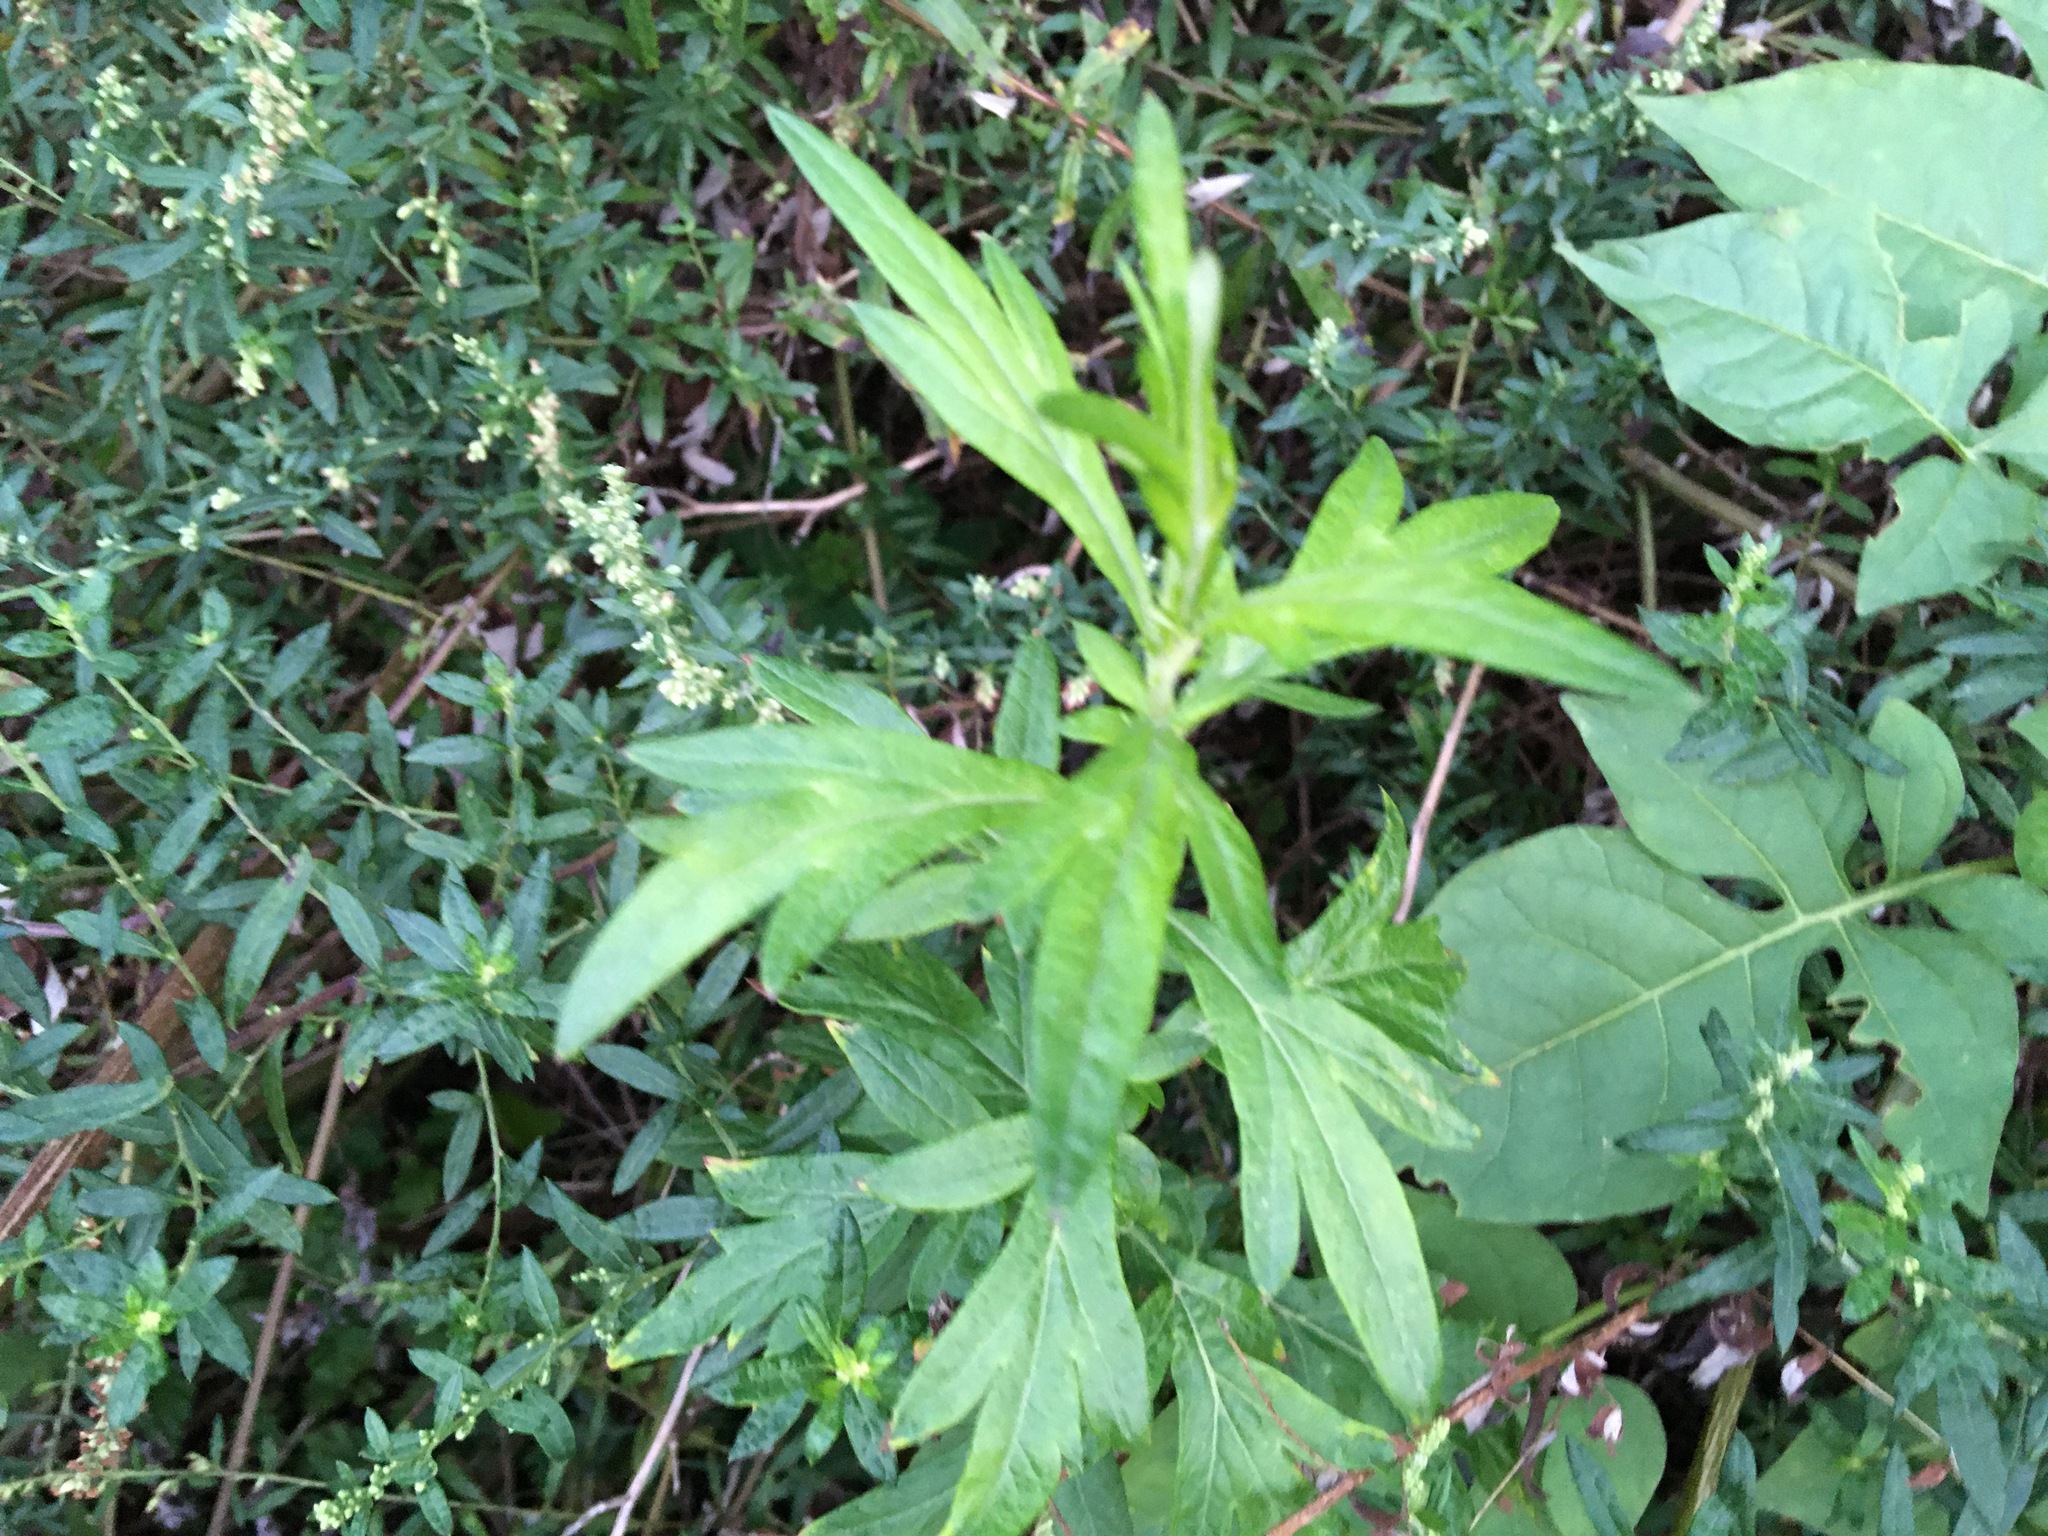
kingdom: Plantae
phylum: Tracheophyta
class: Magnoliopsida
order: Asterales
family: Asteraceae
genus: Artemisia
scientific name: Artemisia vulgaris
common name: Mugwort
